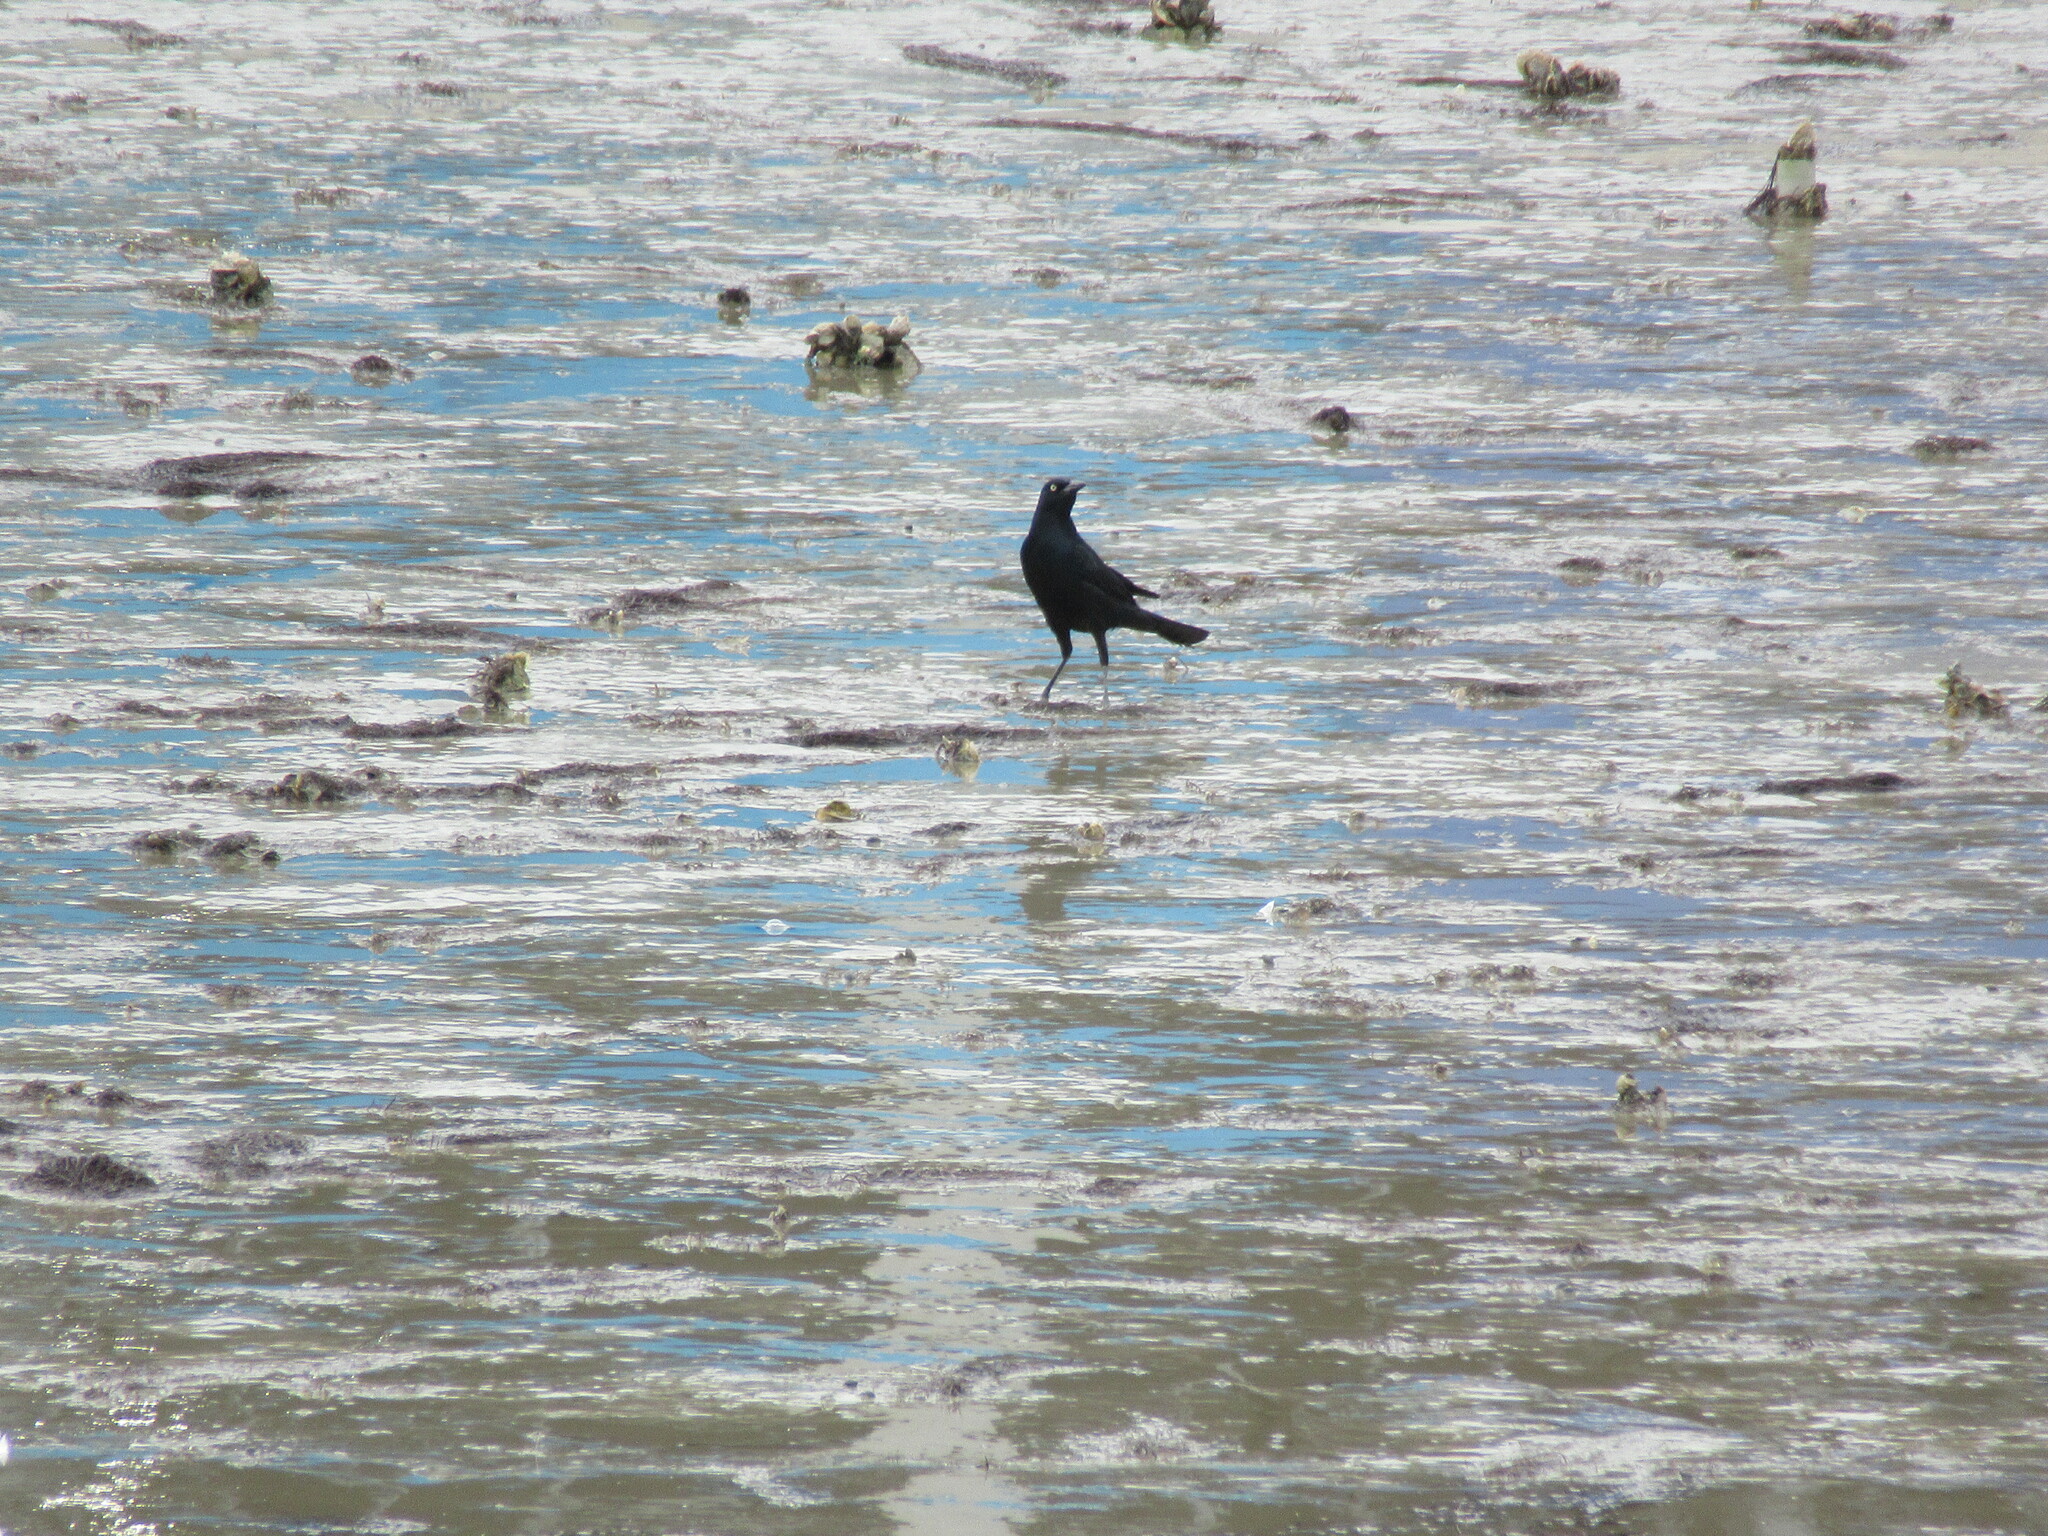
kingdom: Animalia
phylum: Chordata
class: Aves
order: Passeriformes
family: Icteridae
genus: Quiscalus
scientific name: Quiscalus major
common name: Boat-tailed grackle
